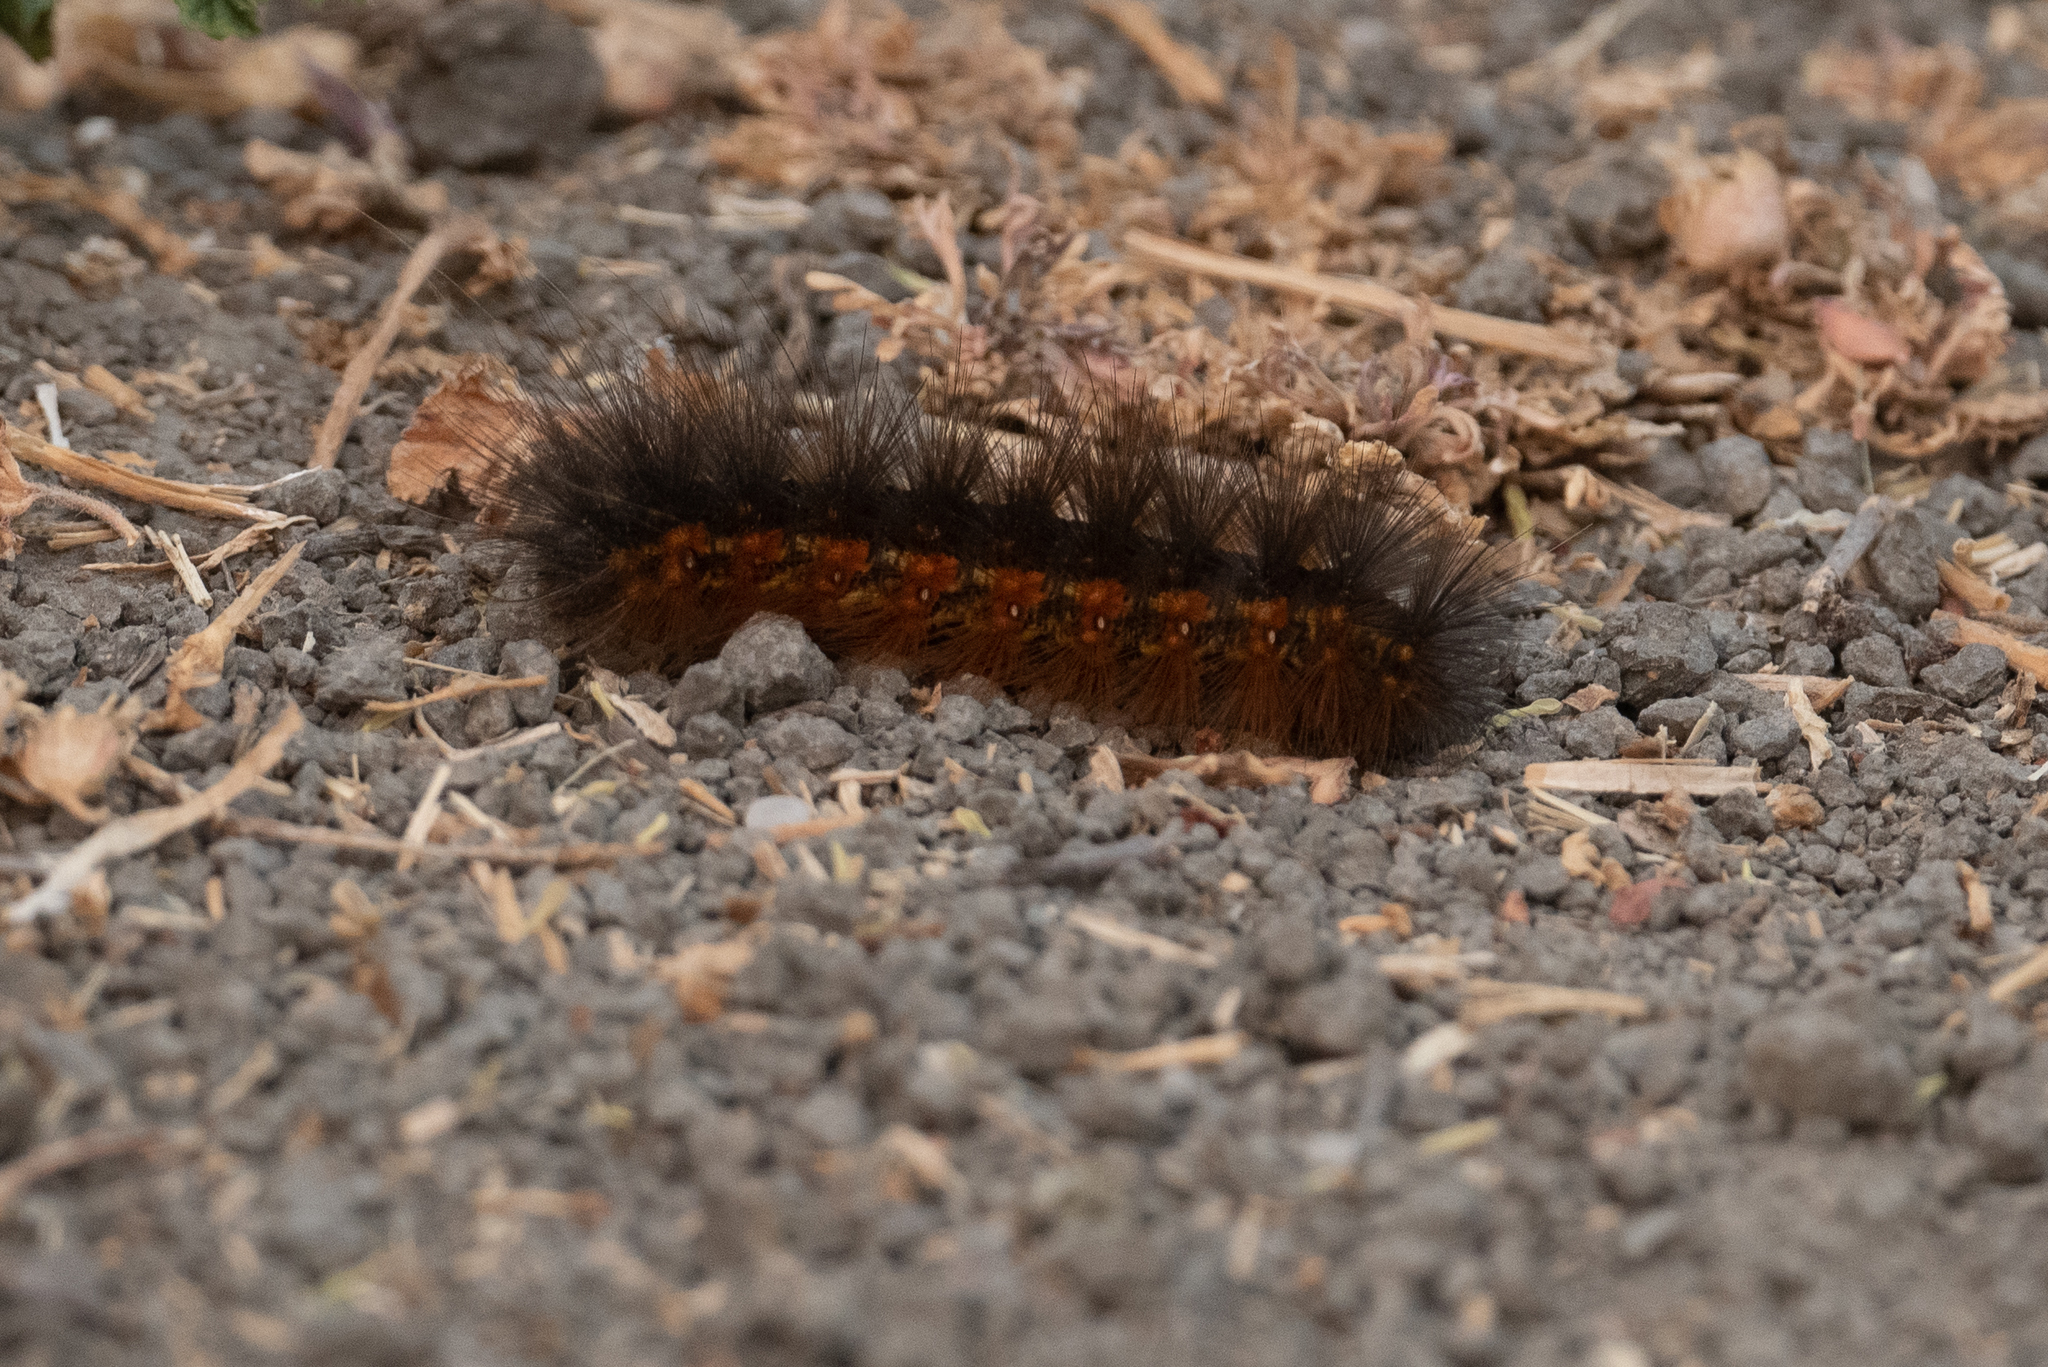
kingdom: Animalia
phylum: Arthropoda
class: Insecta
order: Lepidoptera
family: Erebidae
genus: Estigmene
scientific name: Estigmene acrea
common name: Salt marsh moth
